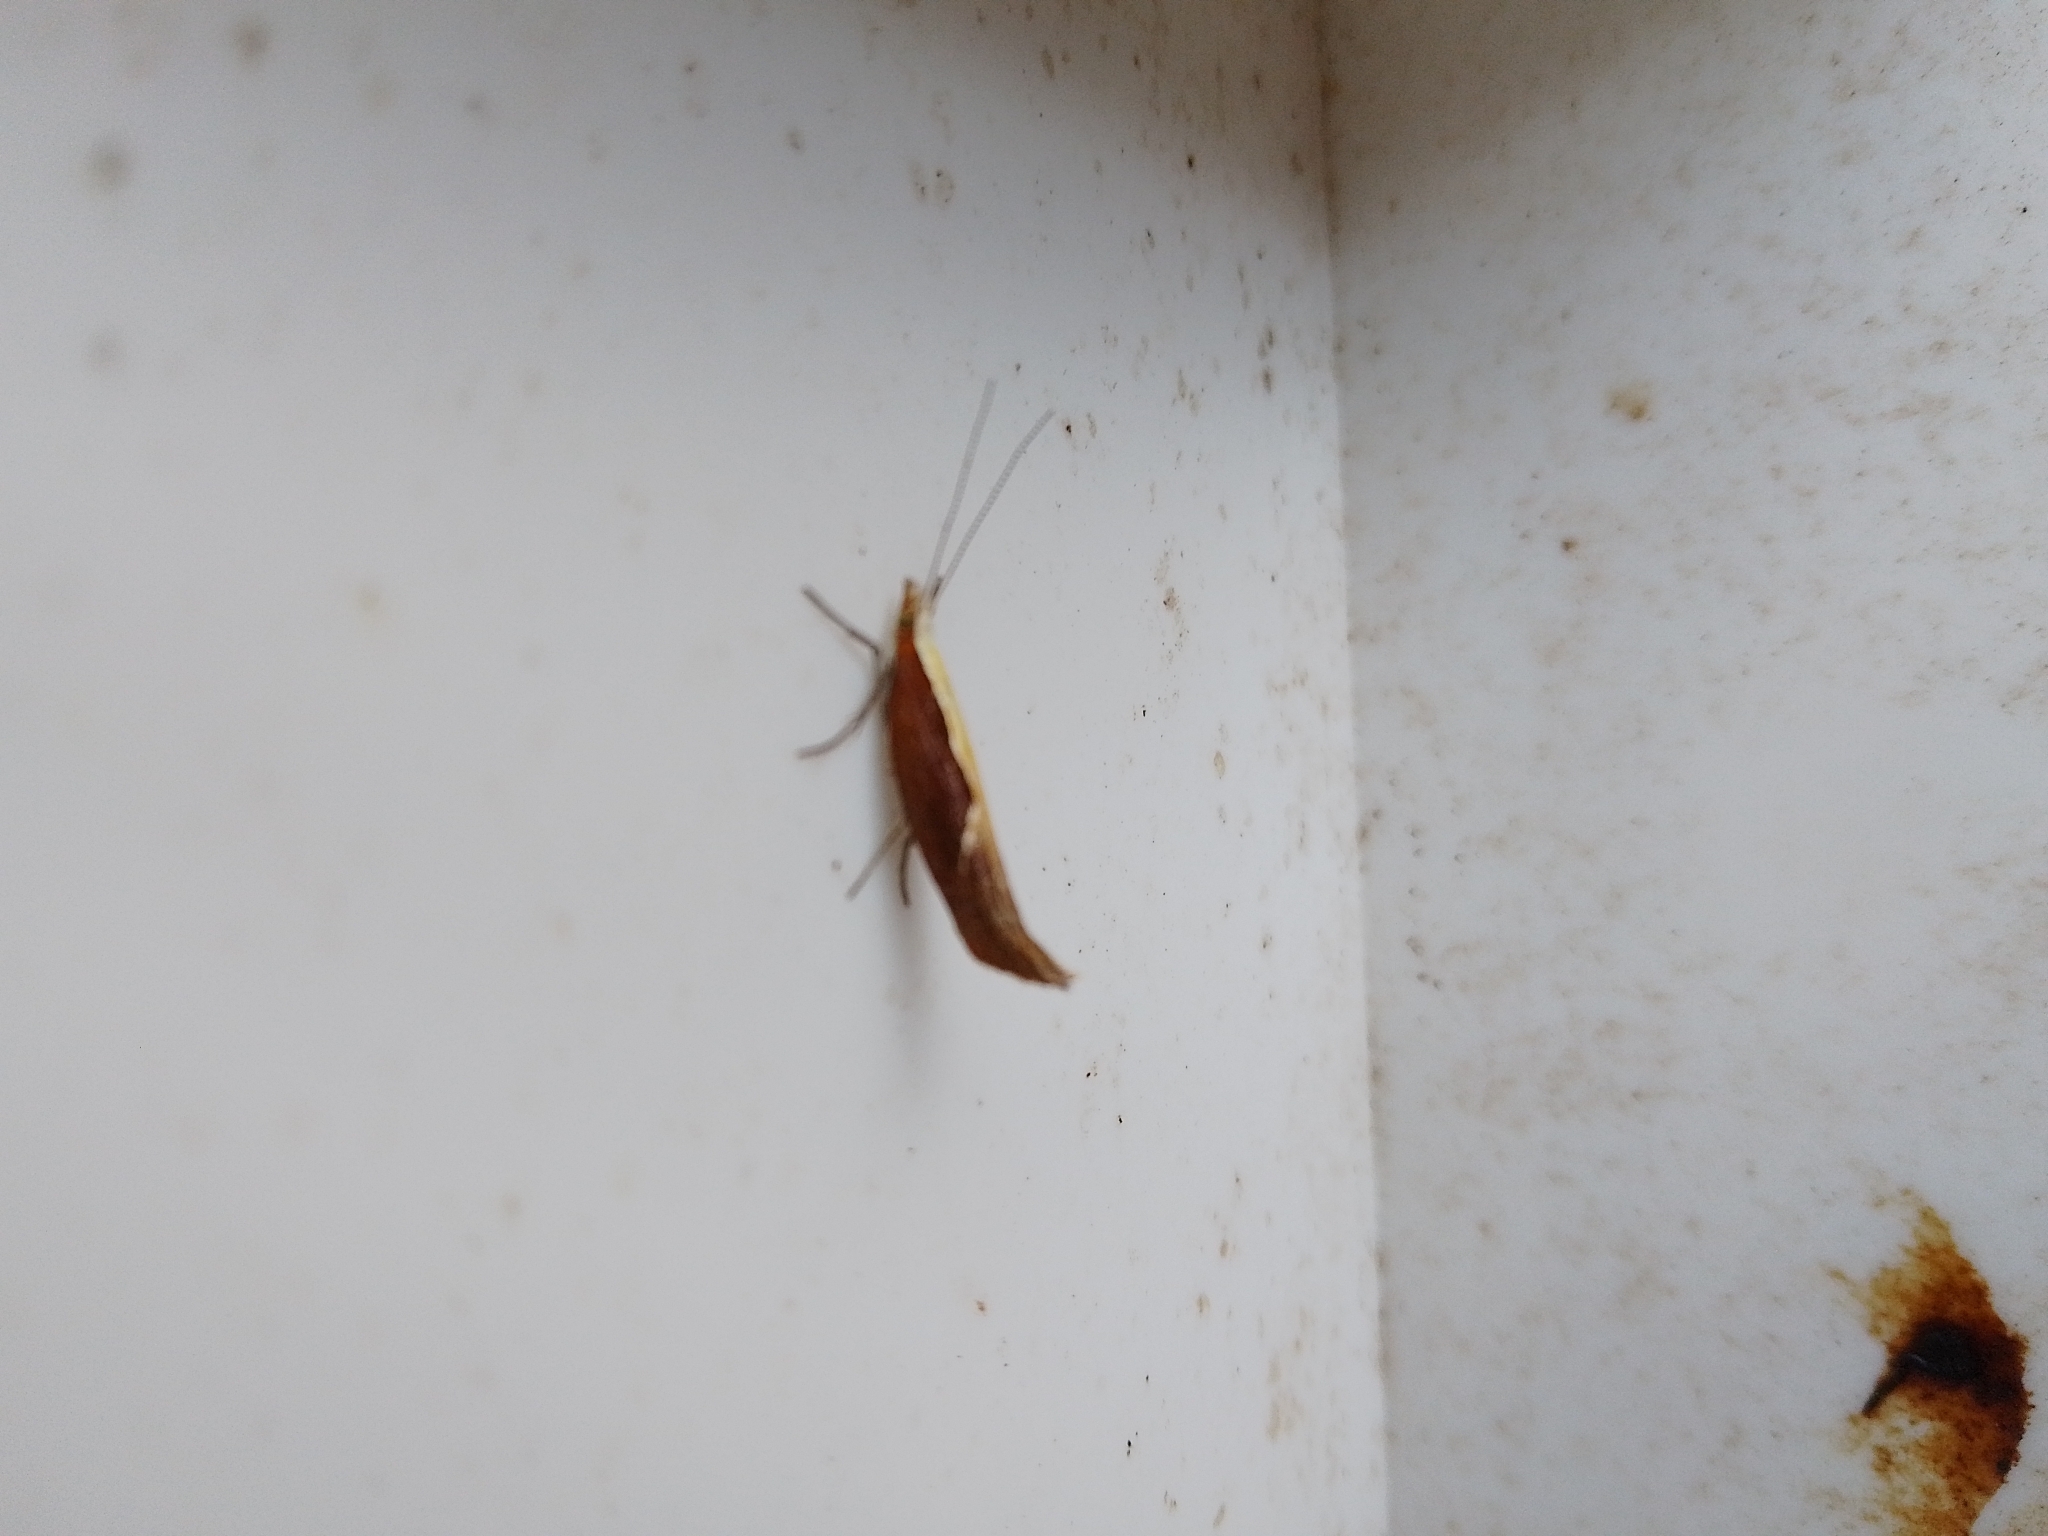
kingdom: Animalia
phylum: Arthropoda
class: Insecta
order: Lepidoptera
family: Ypsolophidae
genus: Ypsolopha
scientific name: Ypsolopha dentella
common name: Honeysuckle moth
